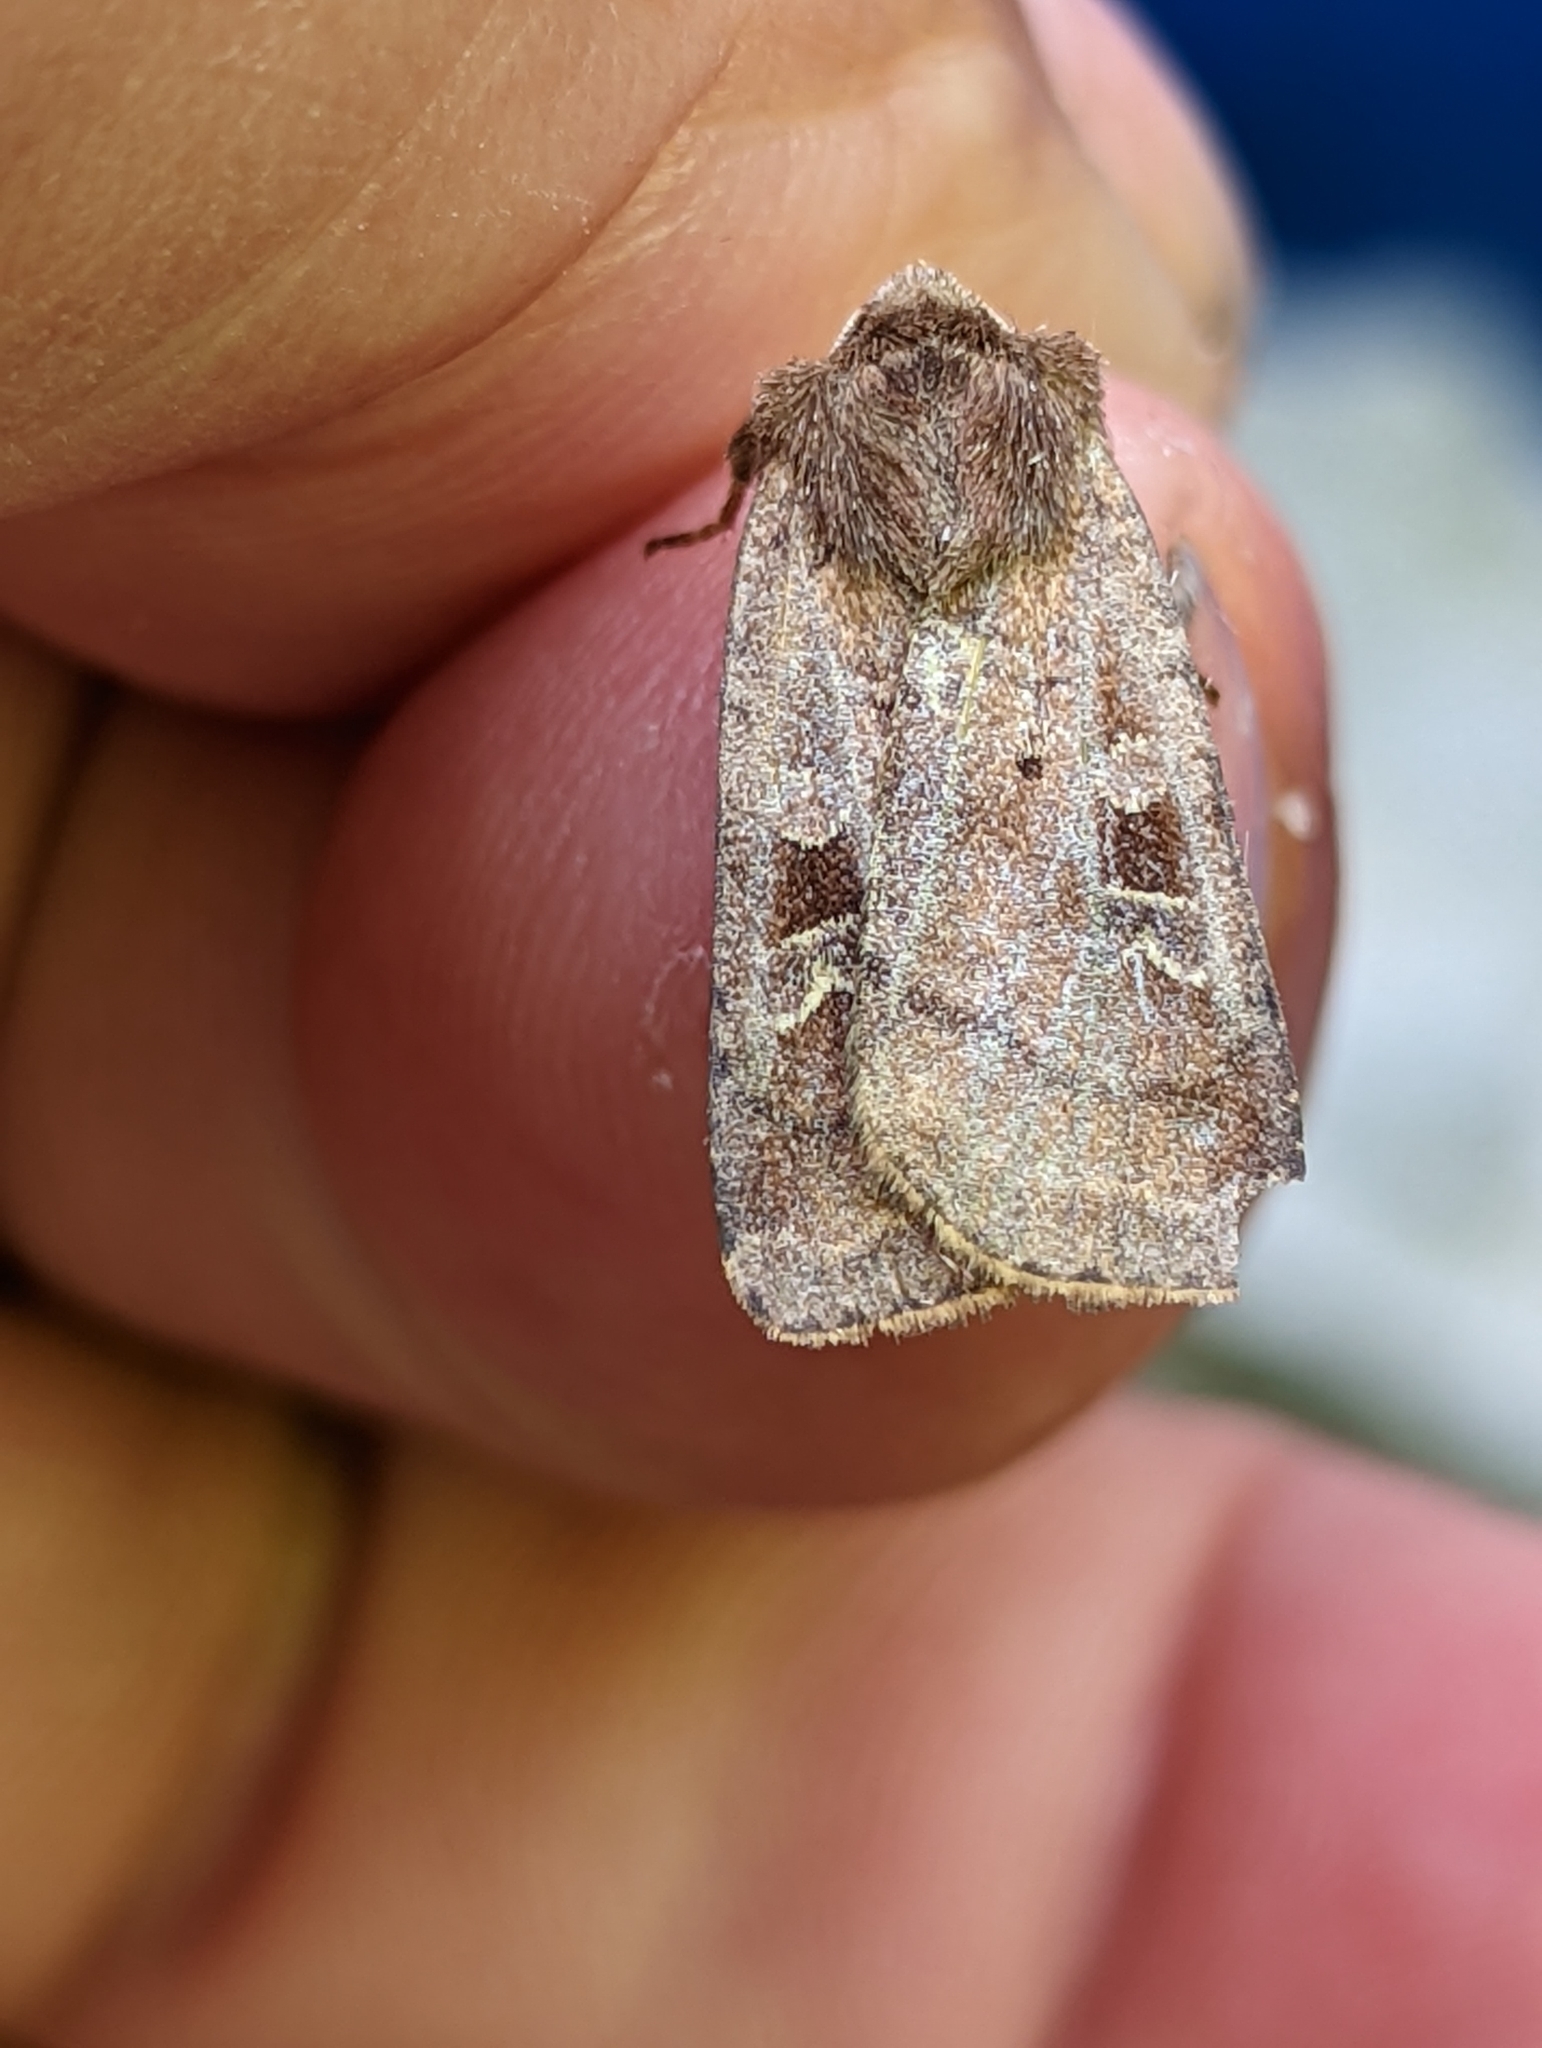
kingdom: Animalia
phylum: Arthropoda
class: Insecta
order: Lepidoptera
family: Noctuidae
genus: Diarsia
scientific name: Diarsia rubi
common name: Small square-spot
